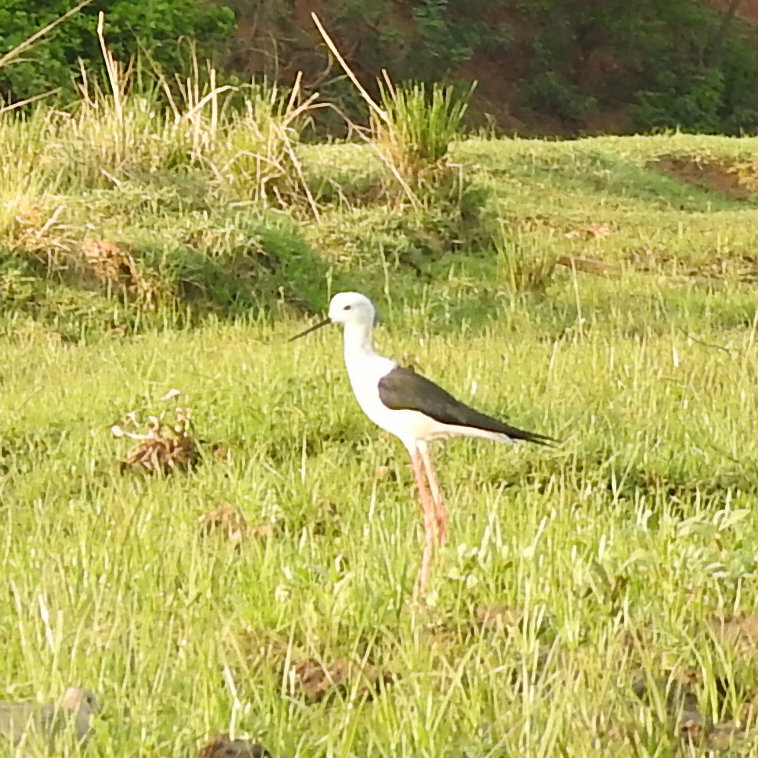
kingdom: Animalia
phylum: Chordata
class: Aves
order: Charadriiformes
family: Recurvirostridae
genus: Himantopus
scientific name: Himantopus himantopus
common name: Black-winged stilt
